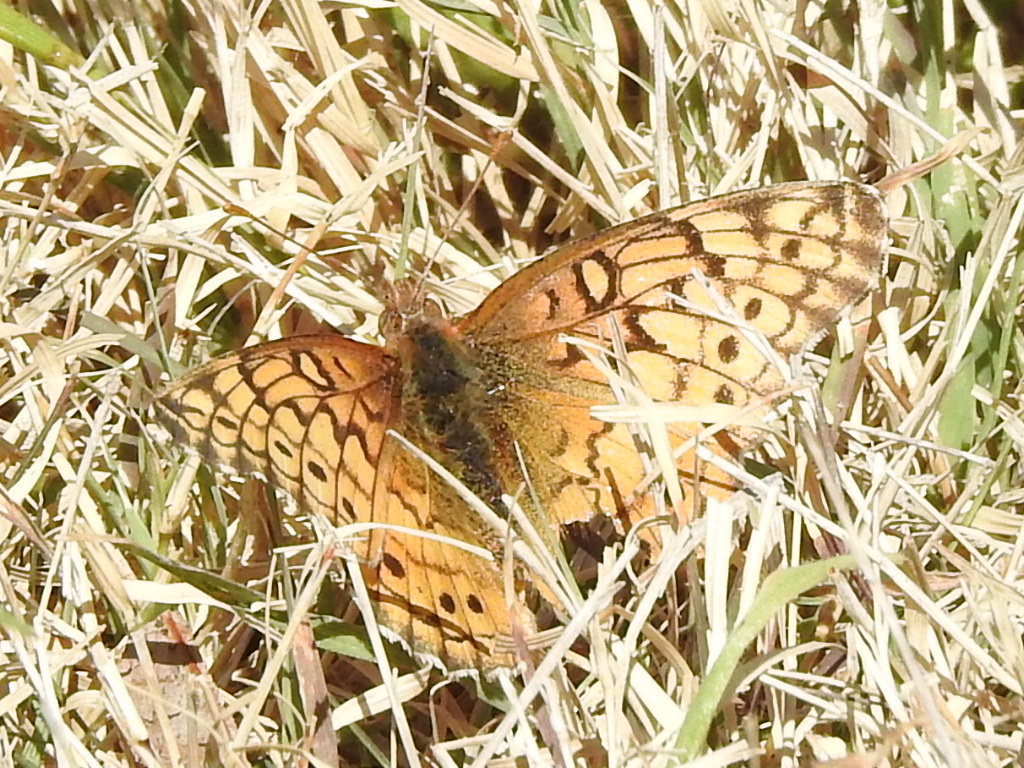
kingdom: Animalia
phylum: Arthropoda
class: Insecta
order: Lepidoptera
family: Nymphalidae
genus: Euptoieta
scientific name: Euptoieta claudia
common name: Variegated fritillary
